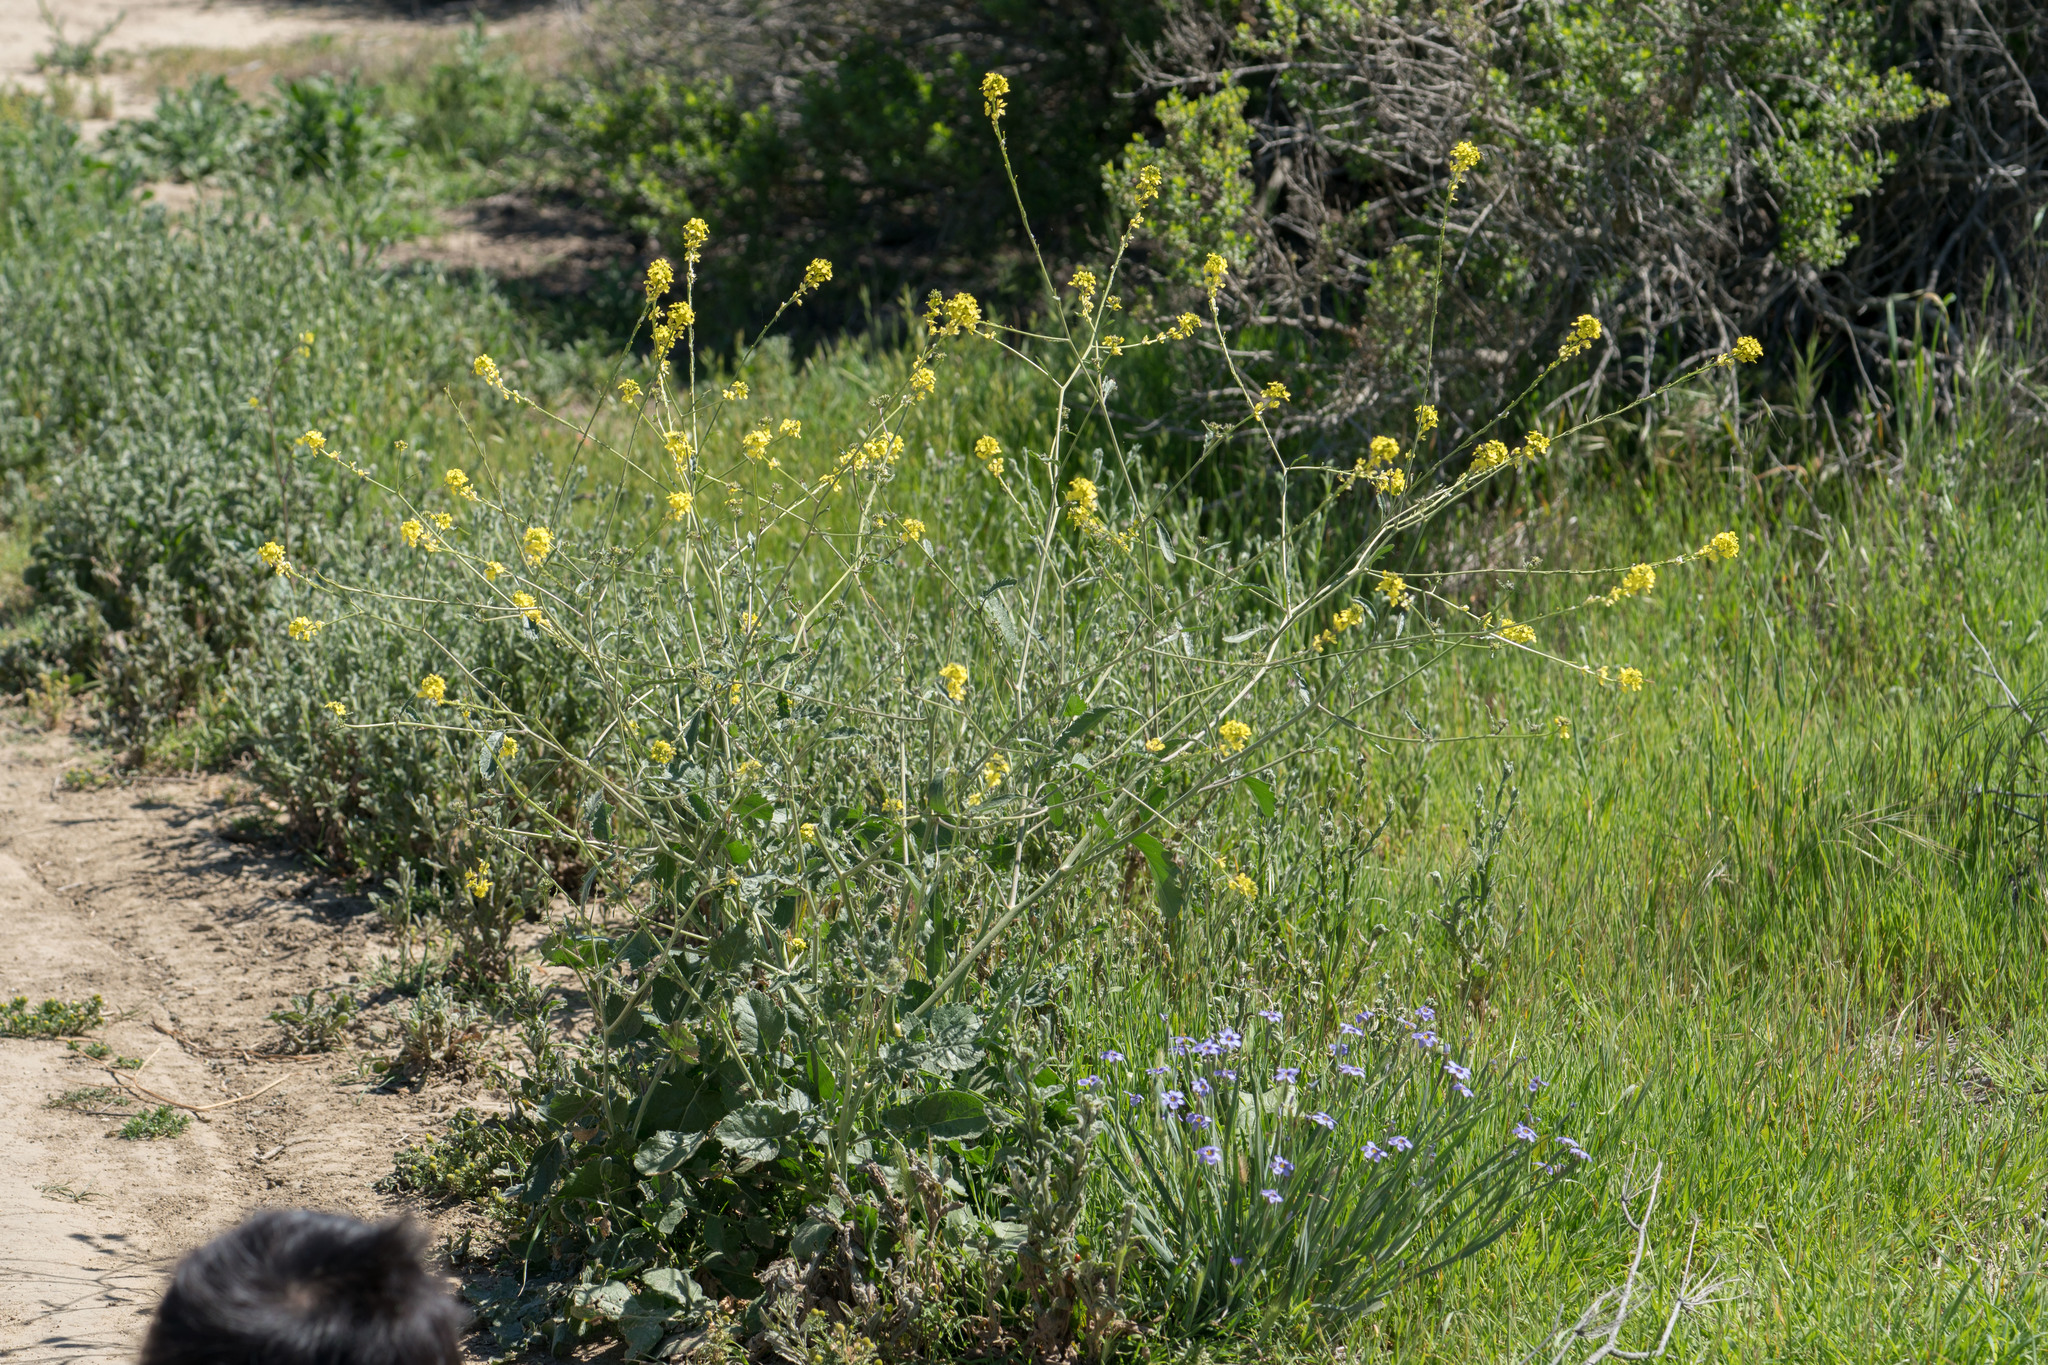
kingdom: Plantae
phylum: Tracheophyta
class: Magnoliopsida
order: Brassicales
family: Brassicaceae
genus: Hirschfeldia
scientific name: Hirschfeldia incana
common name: Hoary mustard
